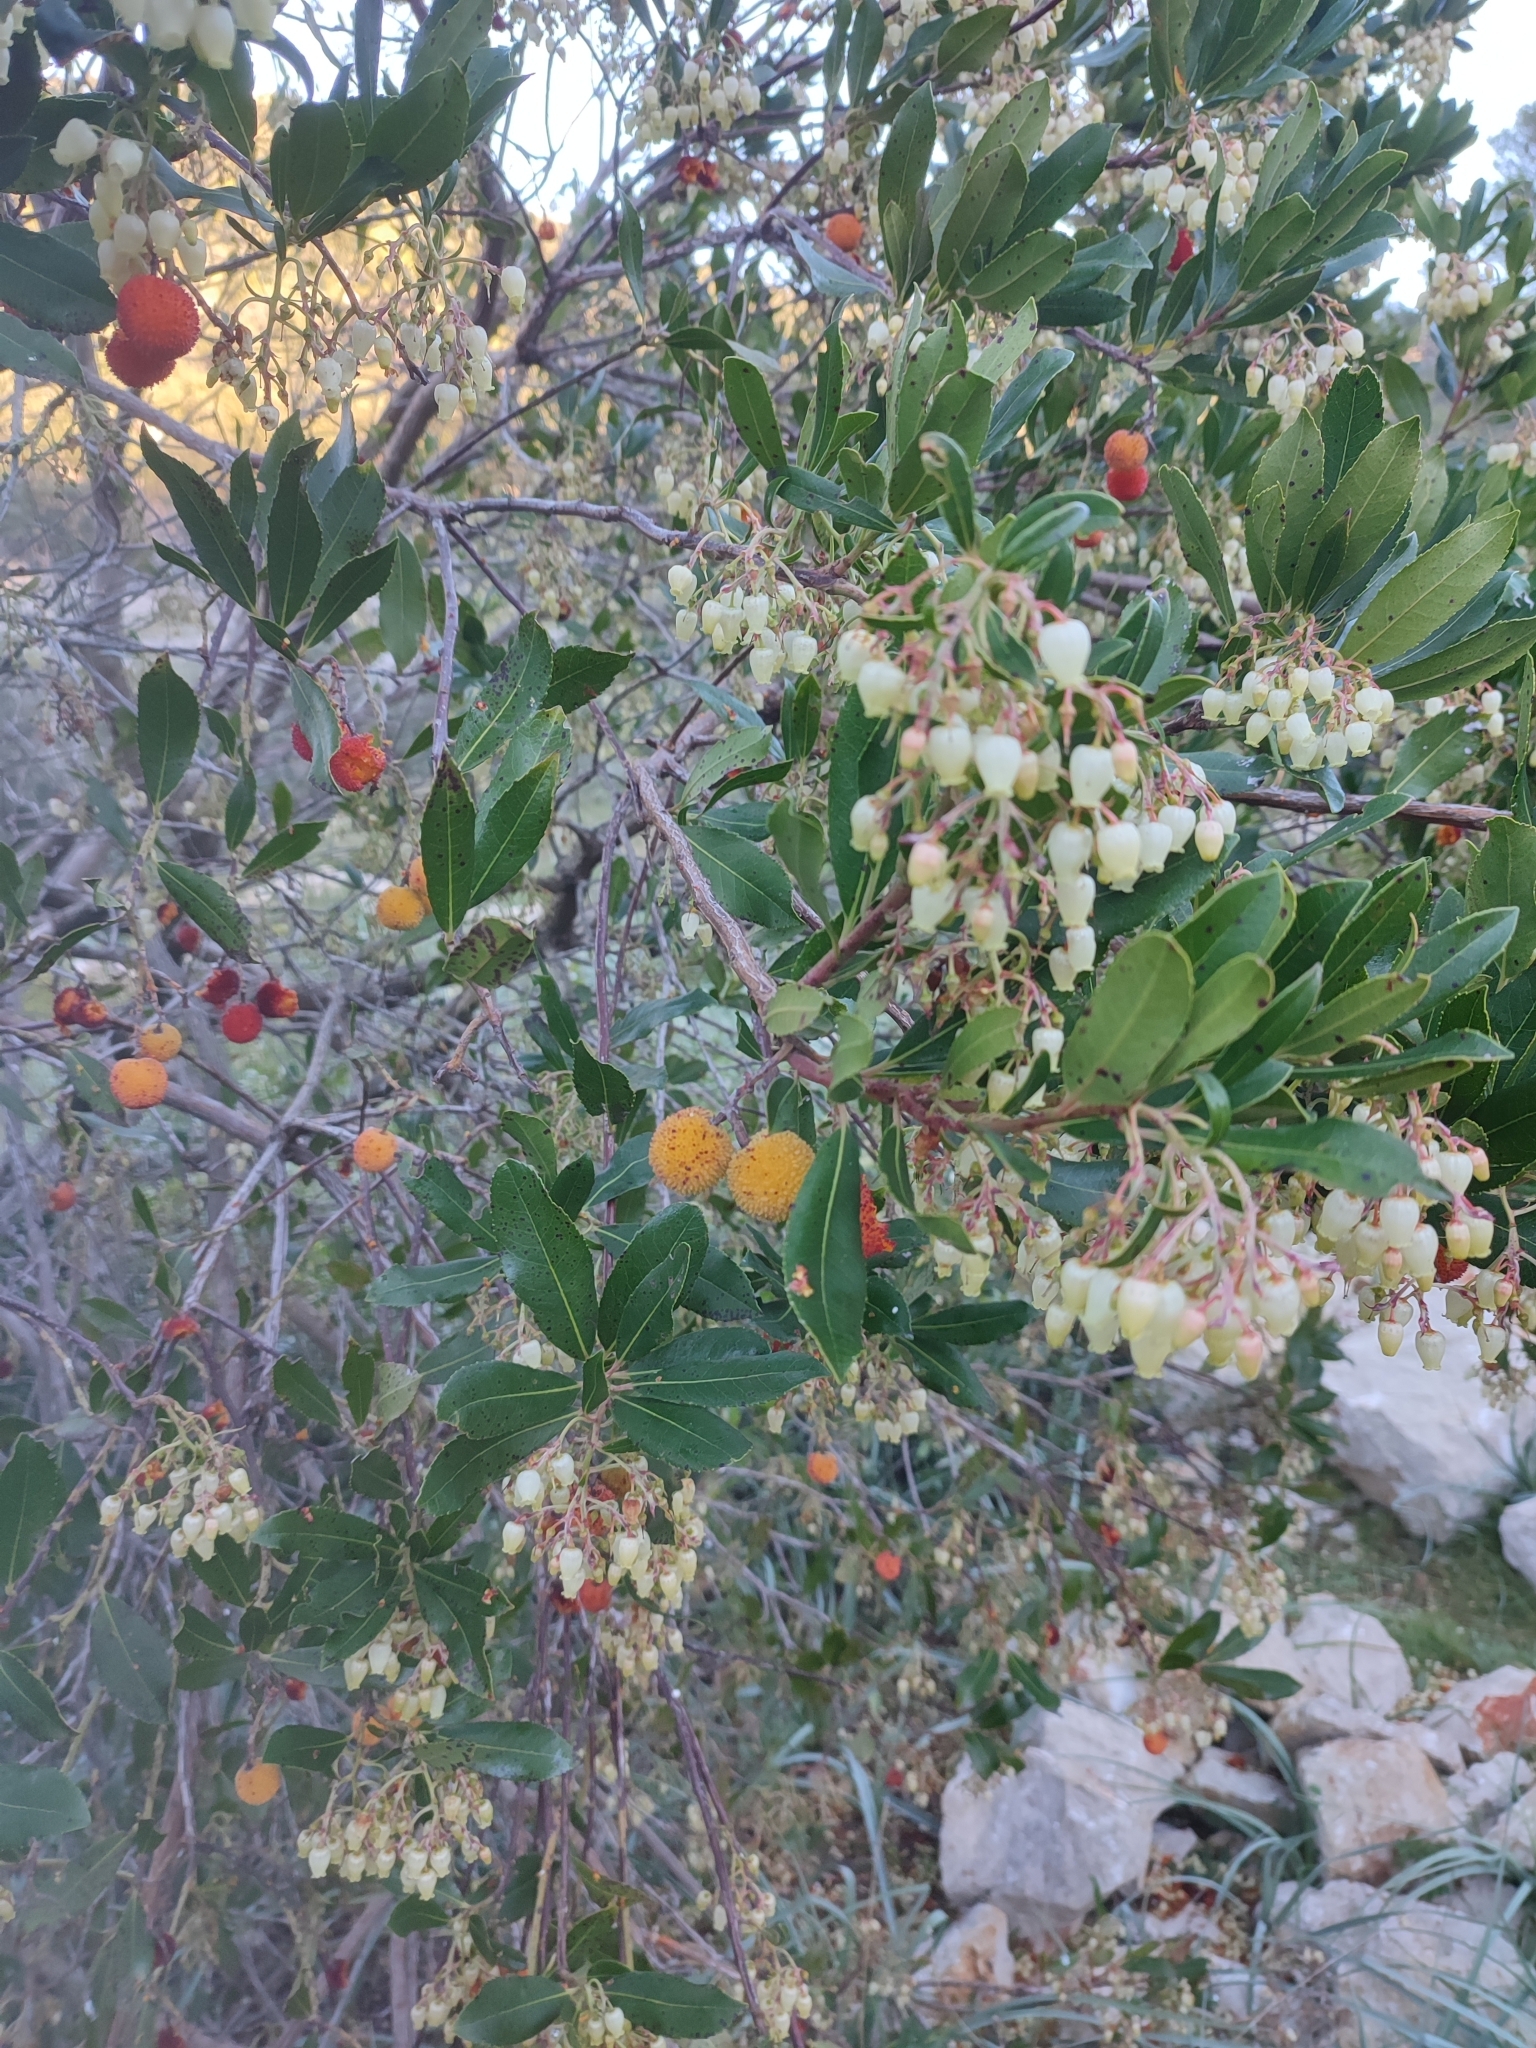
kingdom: Plantae
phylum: Tracheophyta
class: Magnoliopsida
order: Ericales
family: Ericaceae
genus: Arbutus
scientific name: Arbutus unedo
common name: Strawberry-tree
